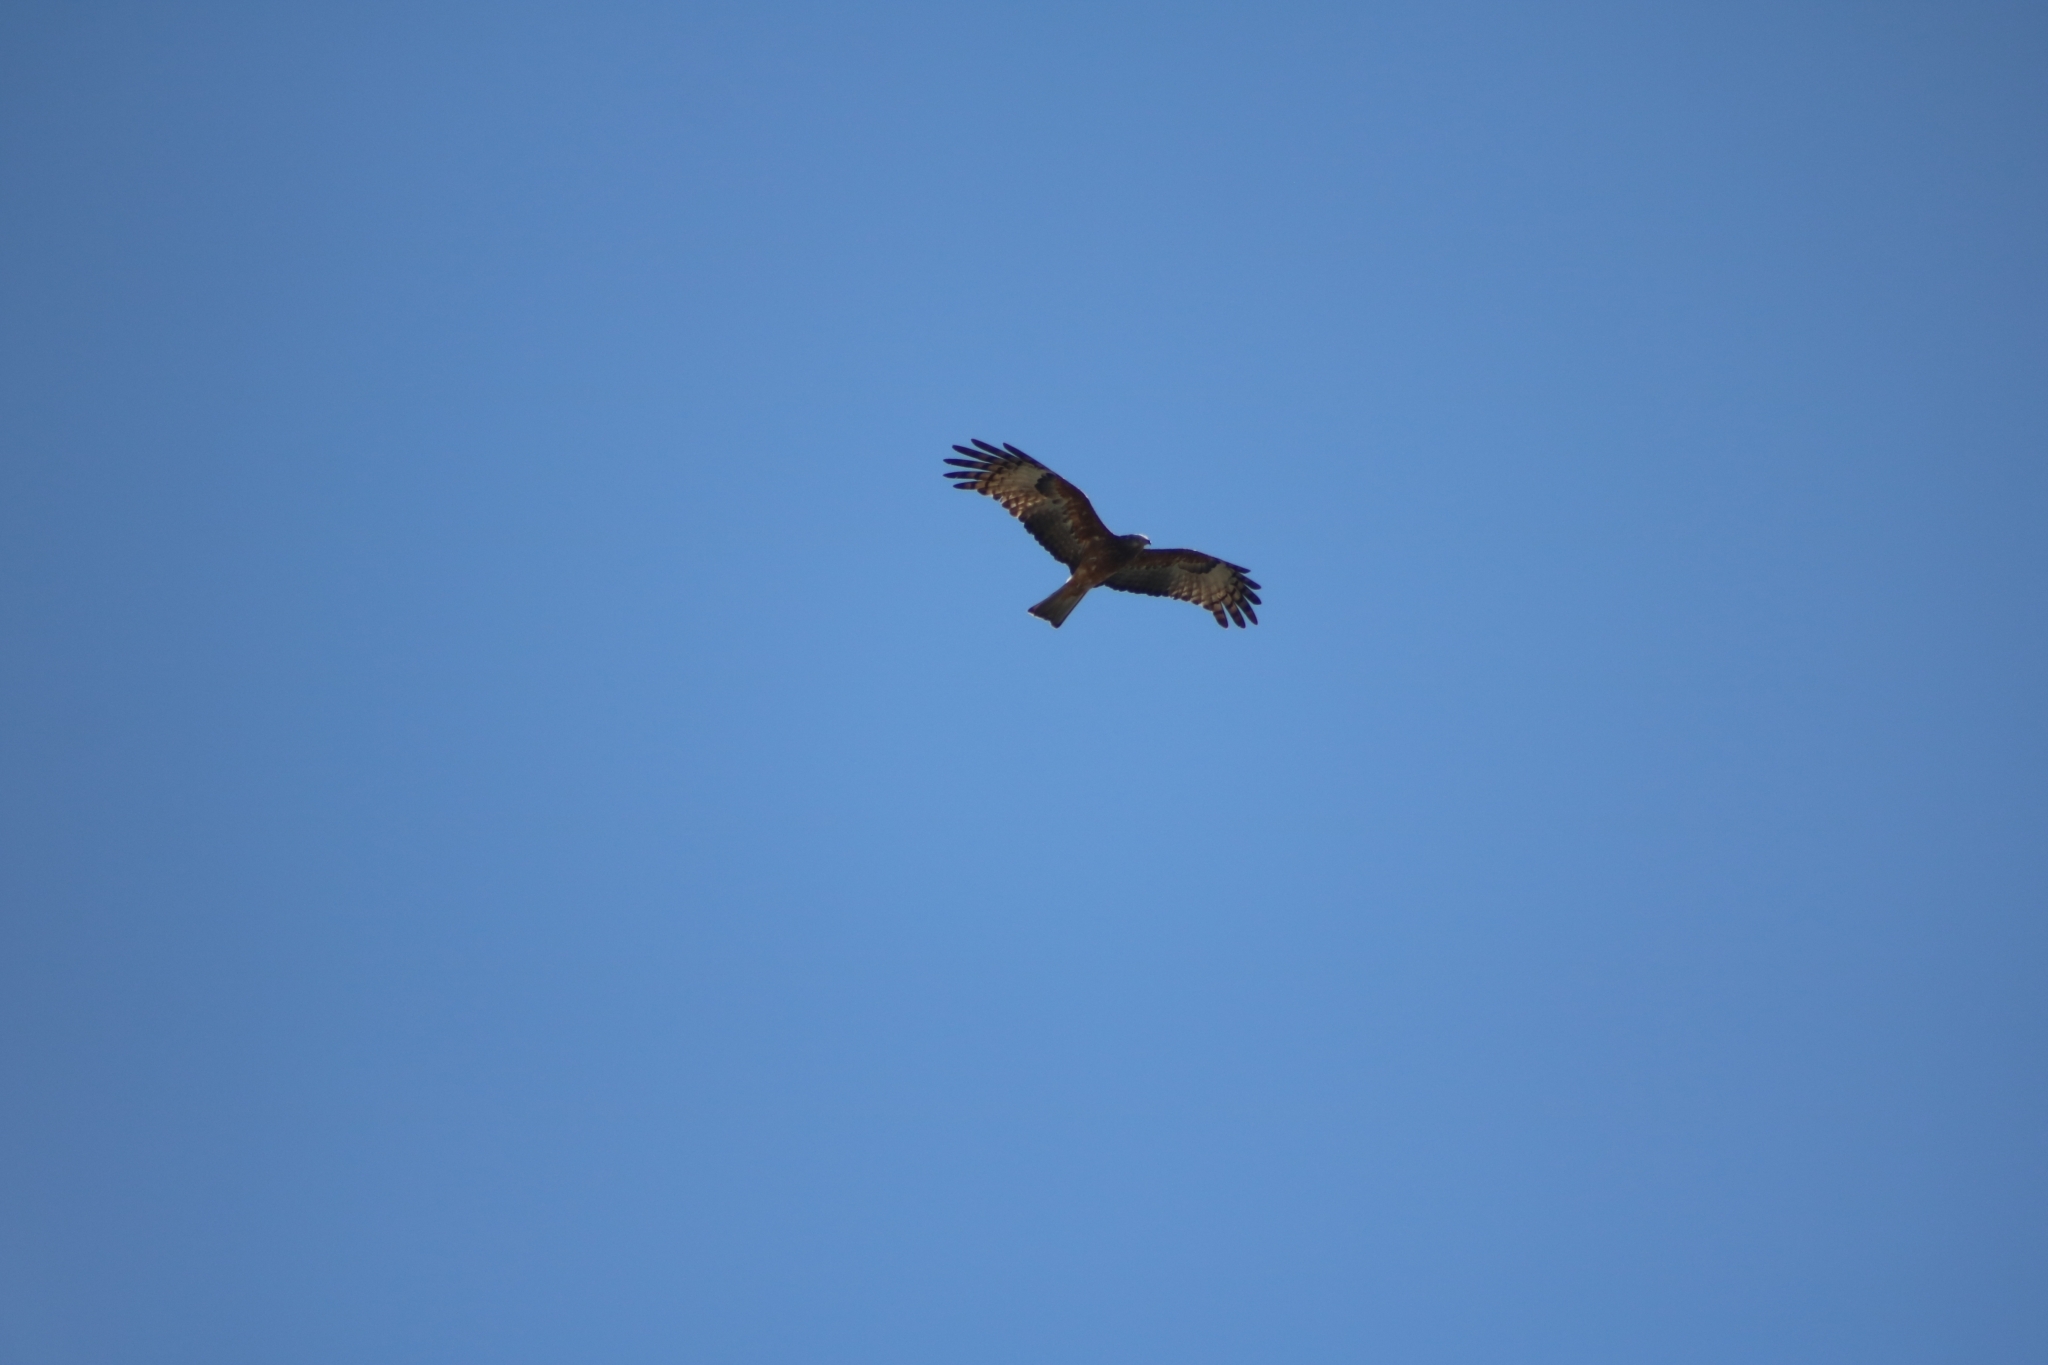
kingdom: Animalia
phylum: Chordata
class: Aves
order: Accipitriformes
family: Accipitridae
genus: Lophoictinia
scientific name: Lophoictinia isura
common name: Square-tailed kite
